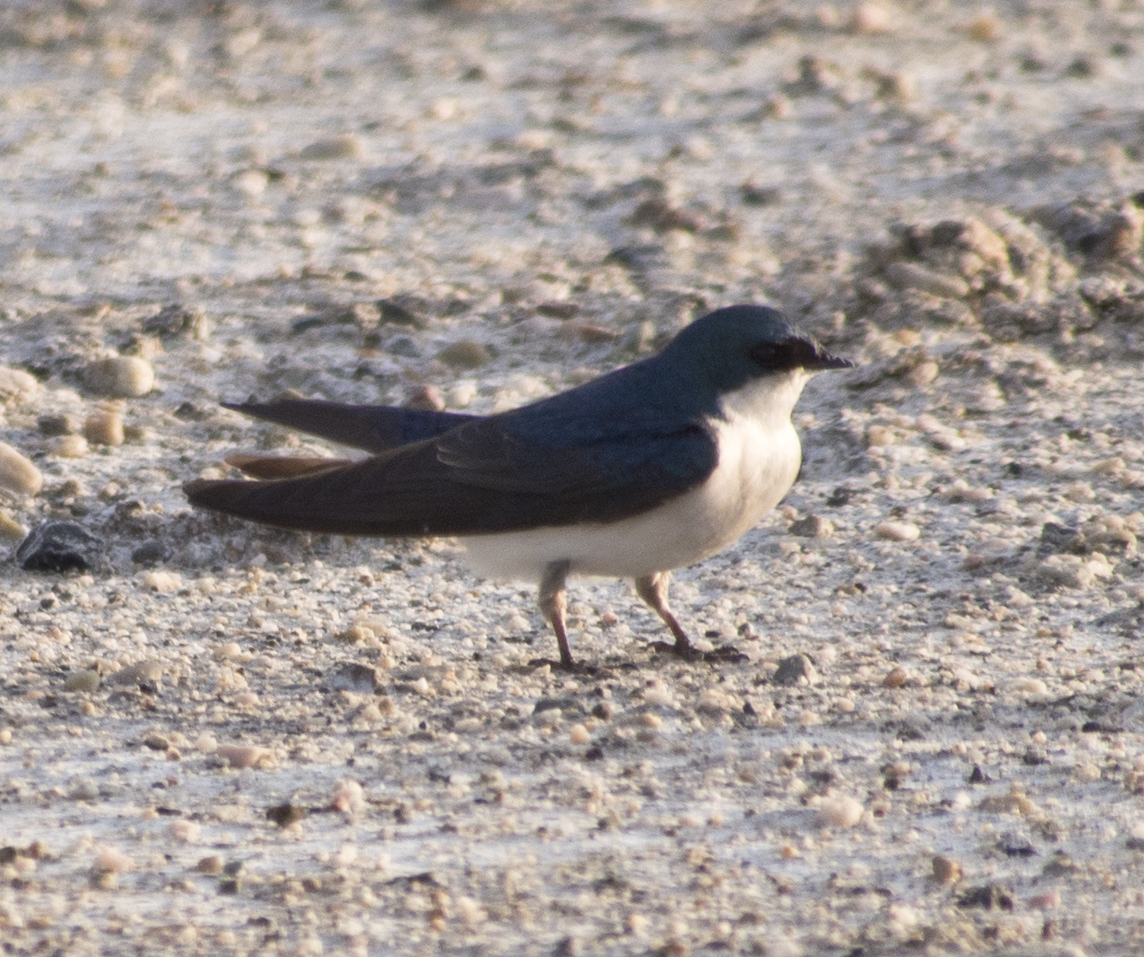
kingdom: Animalia
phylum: Chordata
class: Aves
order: Passeriformes
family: Hirundinidae
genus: Tachycineta
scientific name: Tachycineta bicolor
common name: Tree swallow
